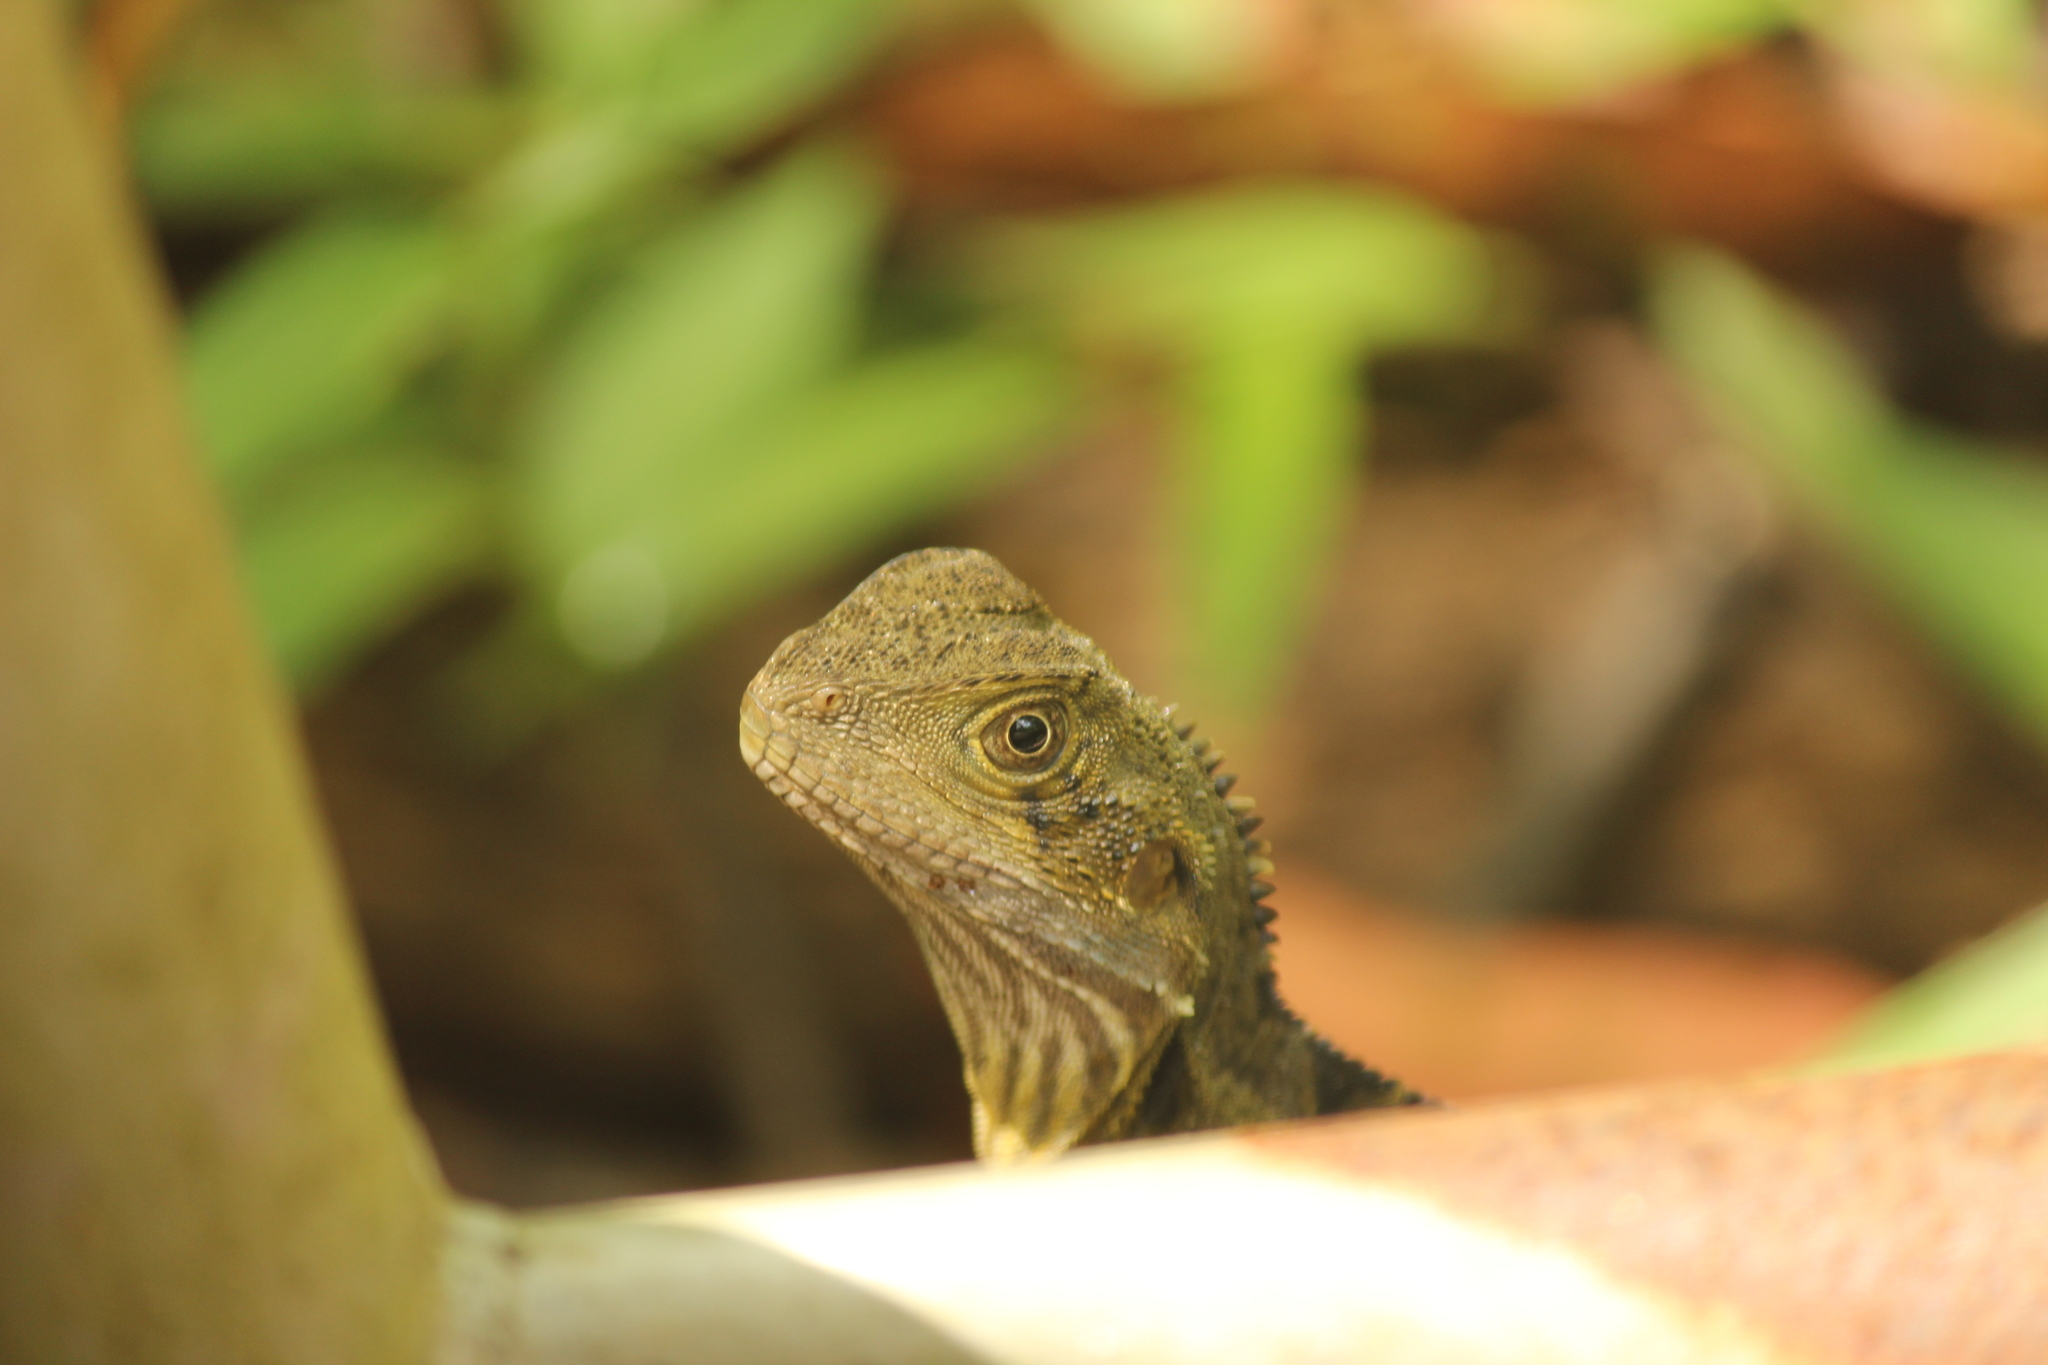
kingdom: Animalia
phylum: Chordata
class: Squamata
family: Agamidae
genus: Intellagama
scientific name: Intellagama lesueurii
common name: Eastern water dragon
